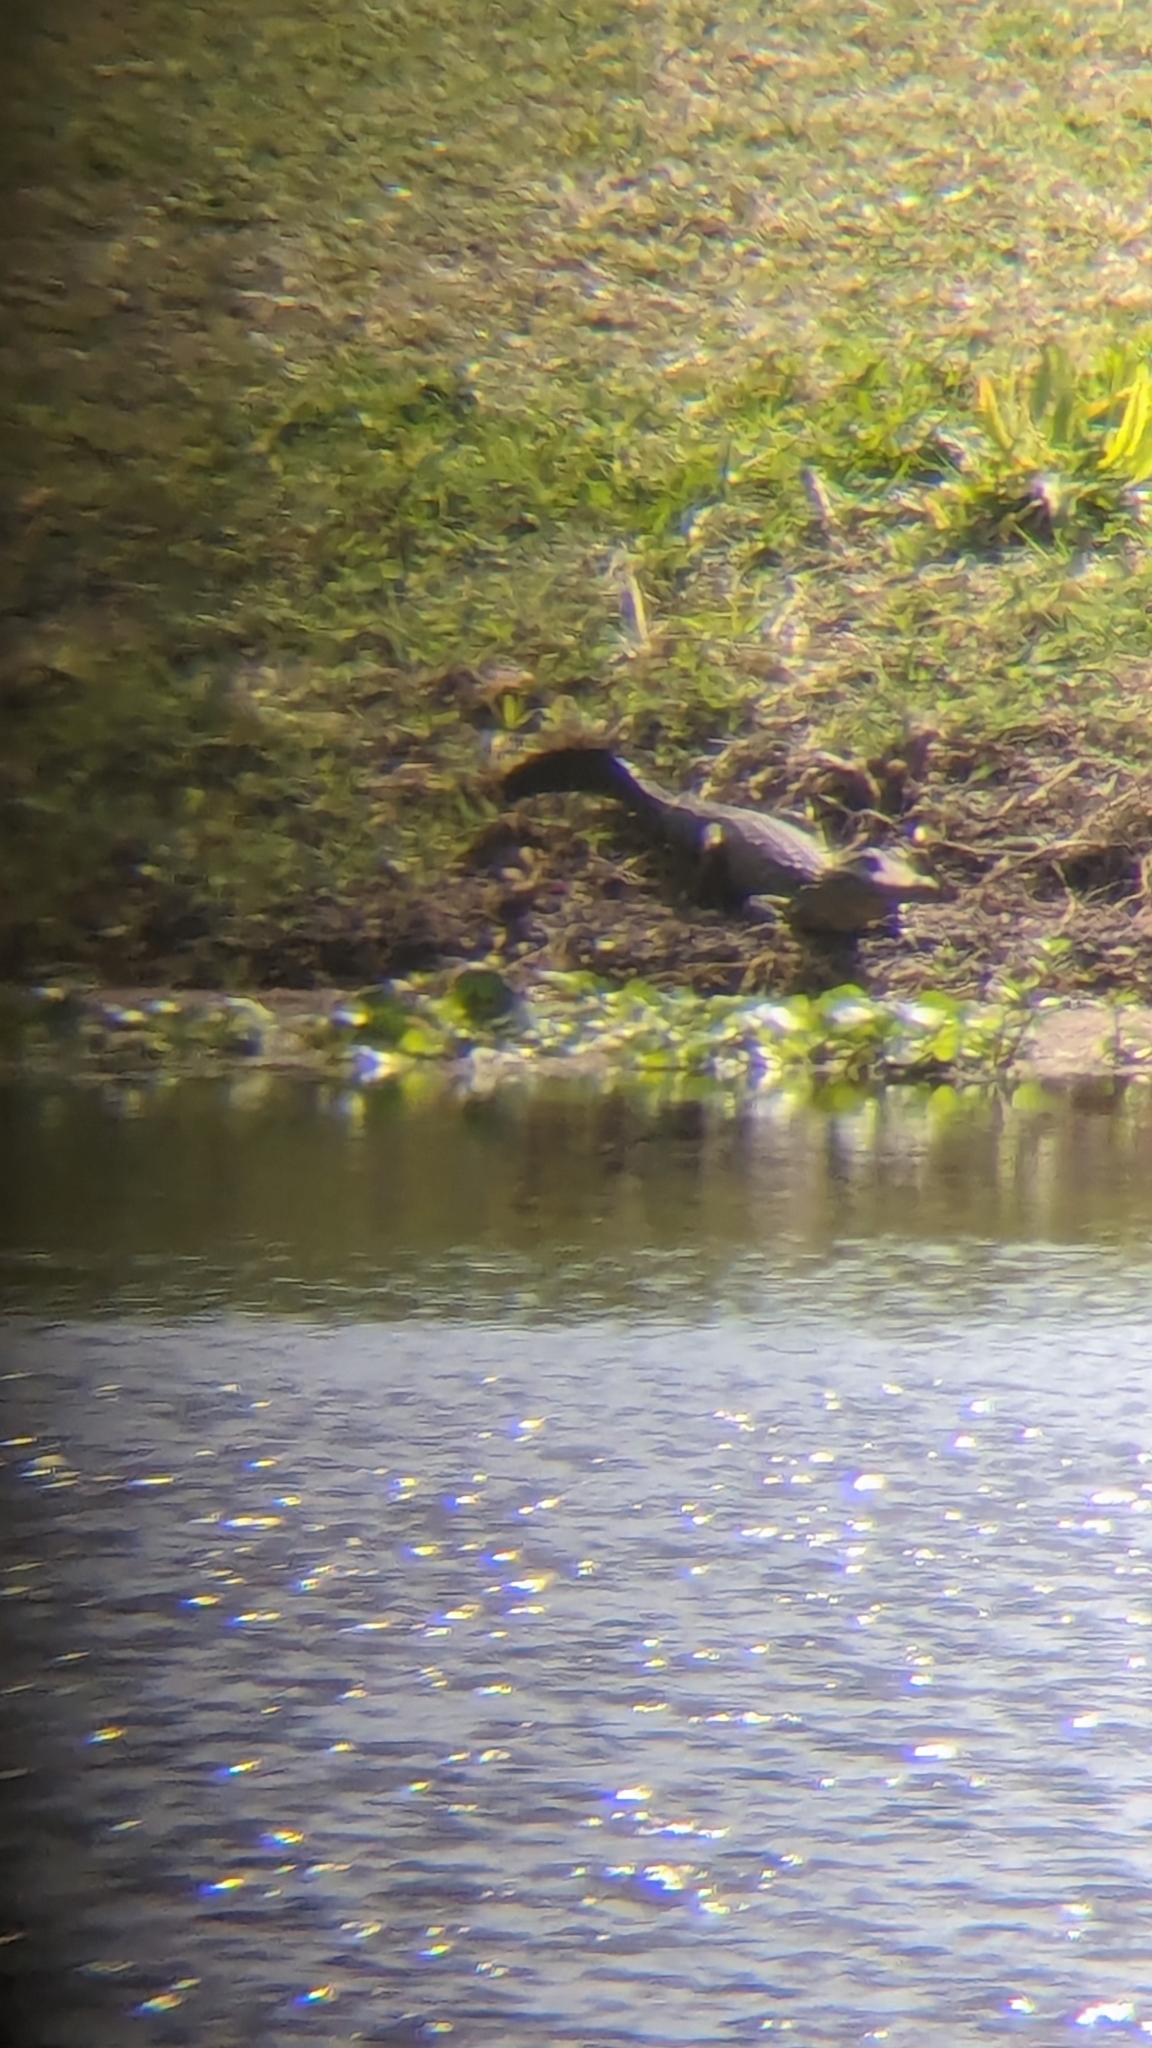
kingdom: Animalia
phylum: Chordata
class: Crocodylia
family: Alligatoridae
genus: Alligator
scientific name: Alligator mississippiensis
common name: American alligator
